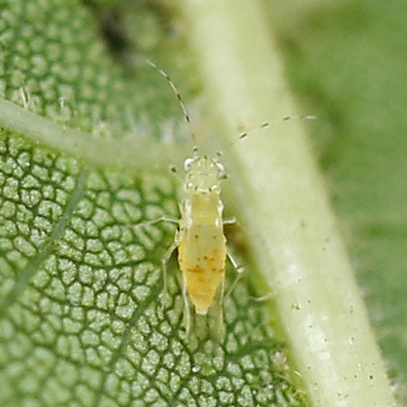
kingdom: Animalia
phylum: Arthropoda
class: Insecta
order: Hemiptera
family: Aphididae
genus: Monelliopsis
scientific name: Monelliopsis caryae
